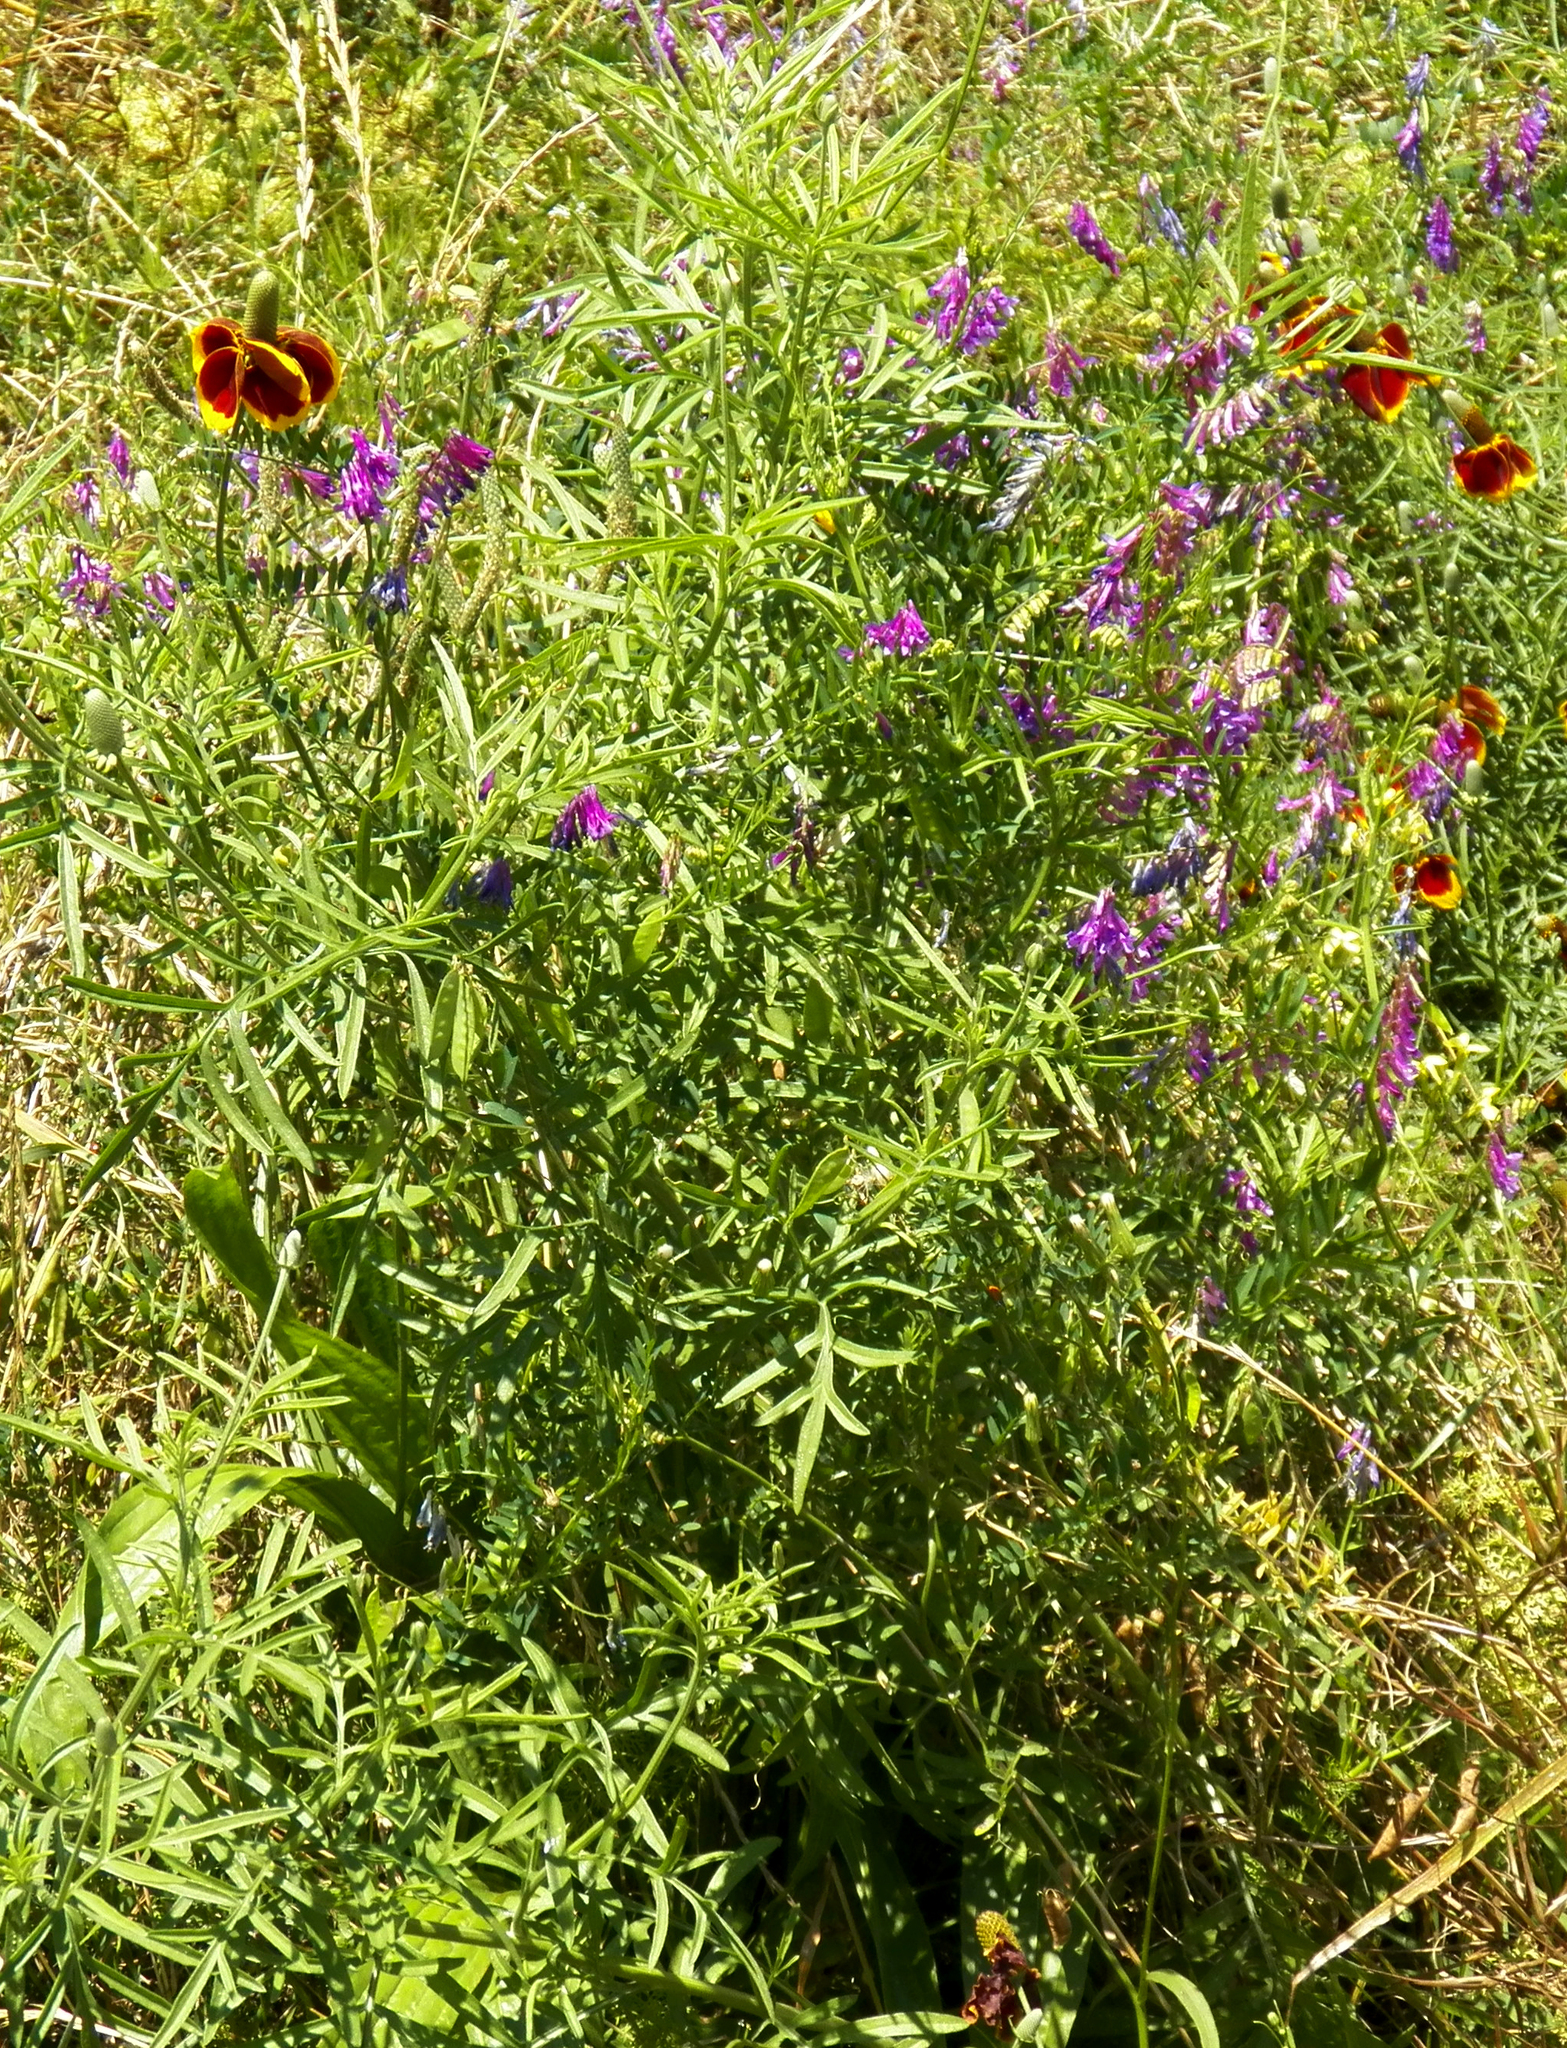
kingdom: Plantae
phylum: Tracheophyta
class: Magnoliopsida
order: Fabales
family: Fabaceae
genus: Vicia
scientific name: Vicia villosa
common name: Fodder vetch
